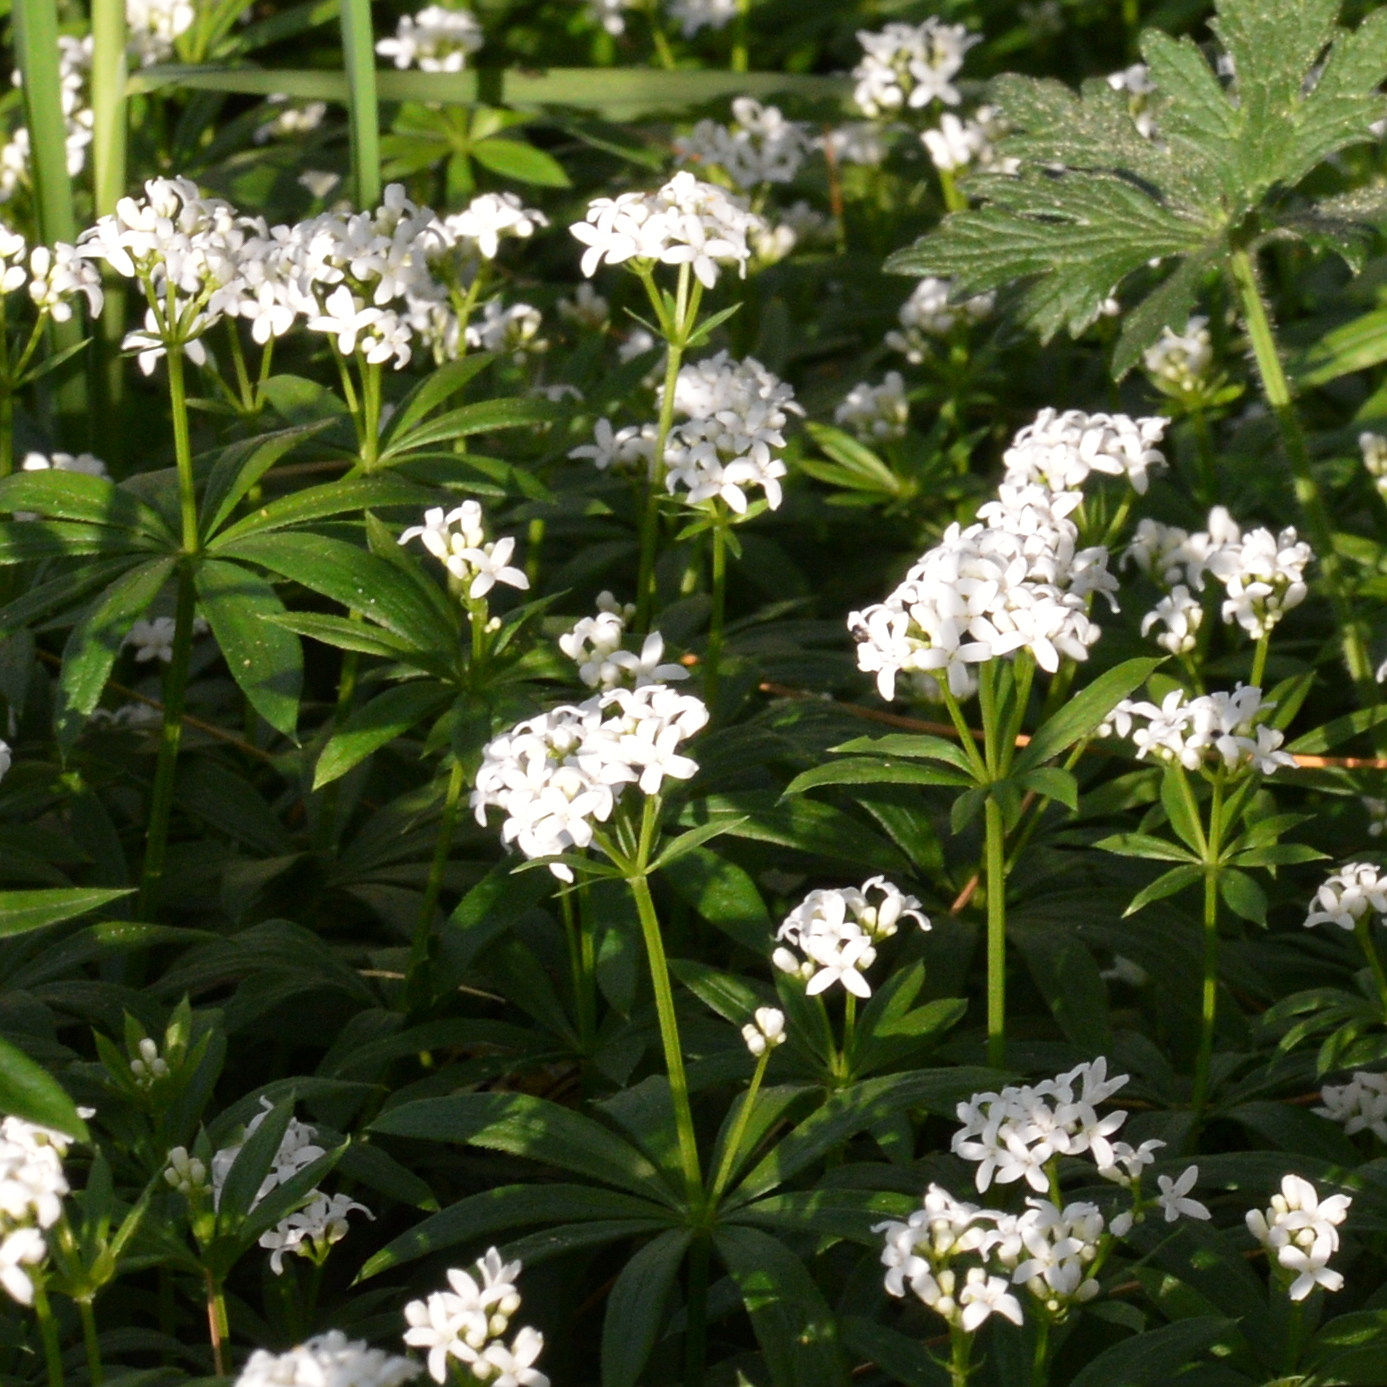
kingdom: Plantae
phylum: Tracheophyta
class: Magnoliopsida
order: Gentianales
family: Rubiaceae
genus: Galium
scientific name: Galium odoratum
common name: Sweet woodruff
